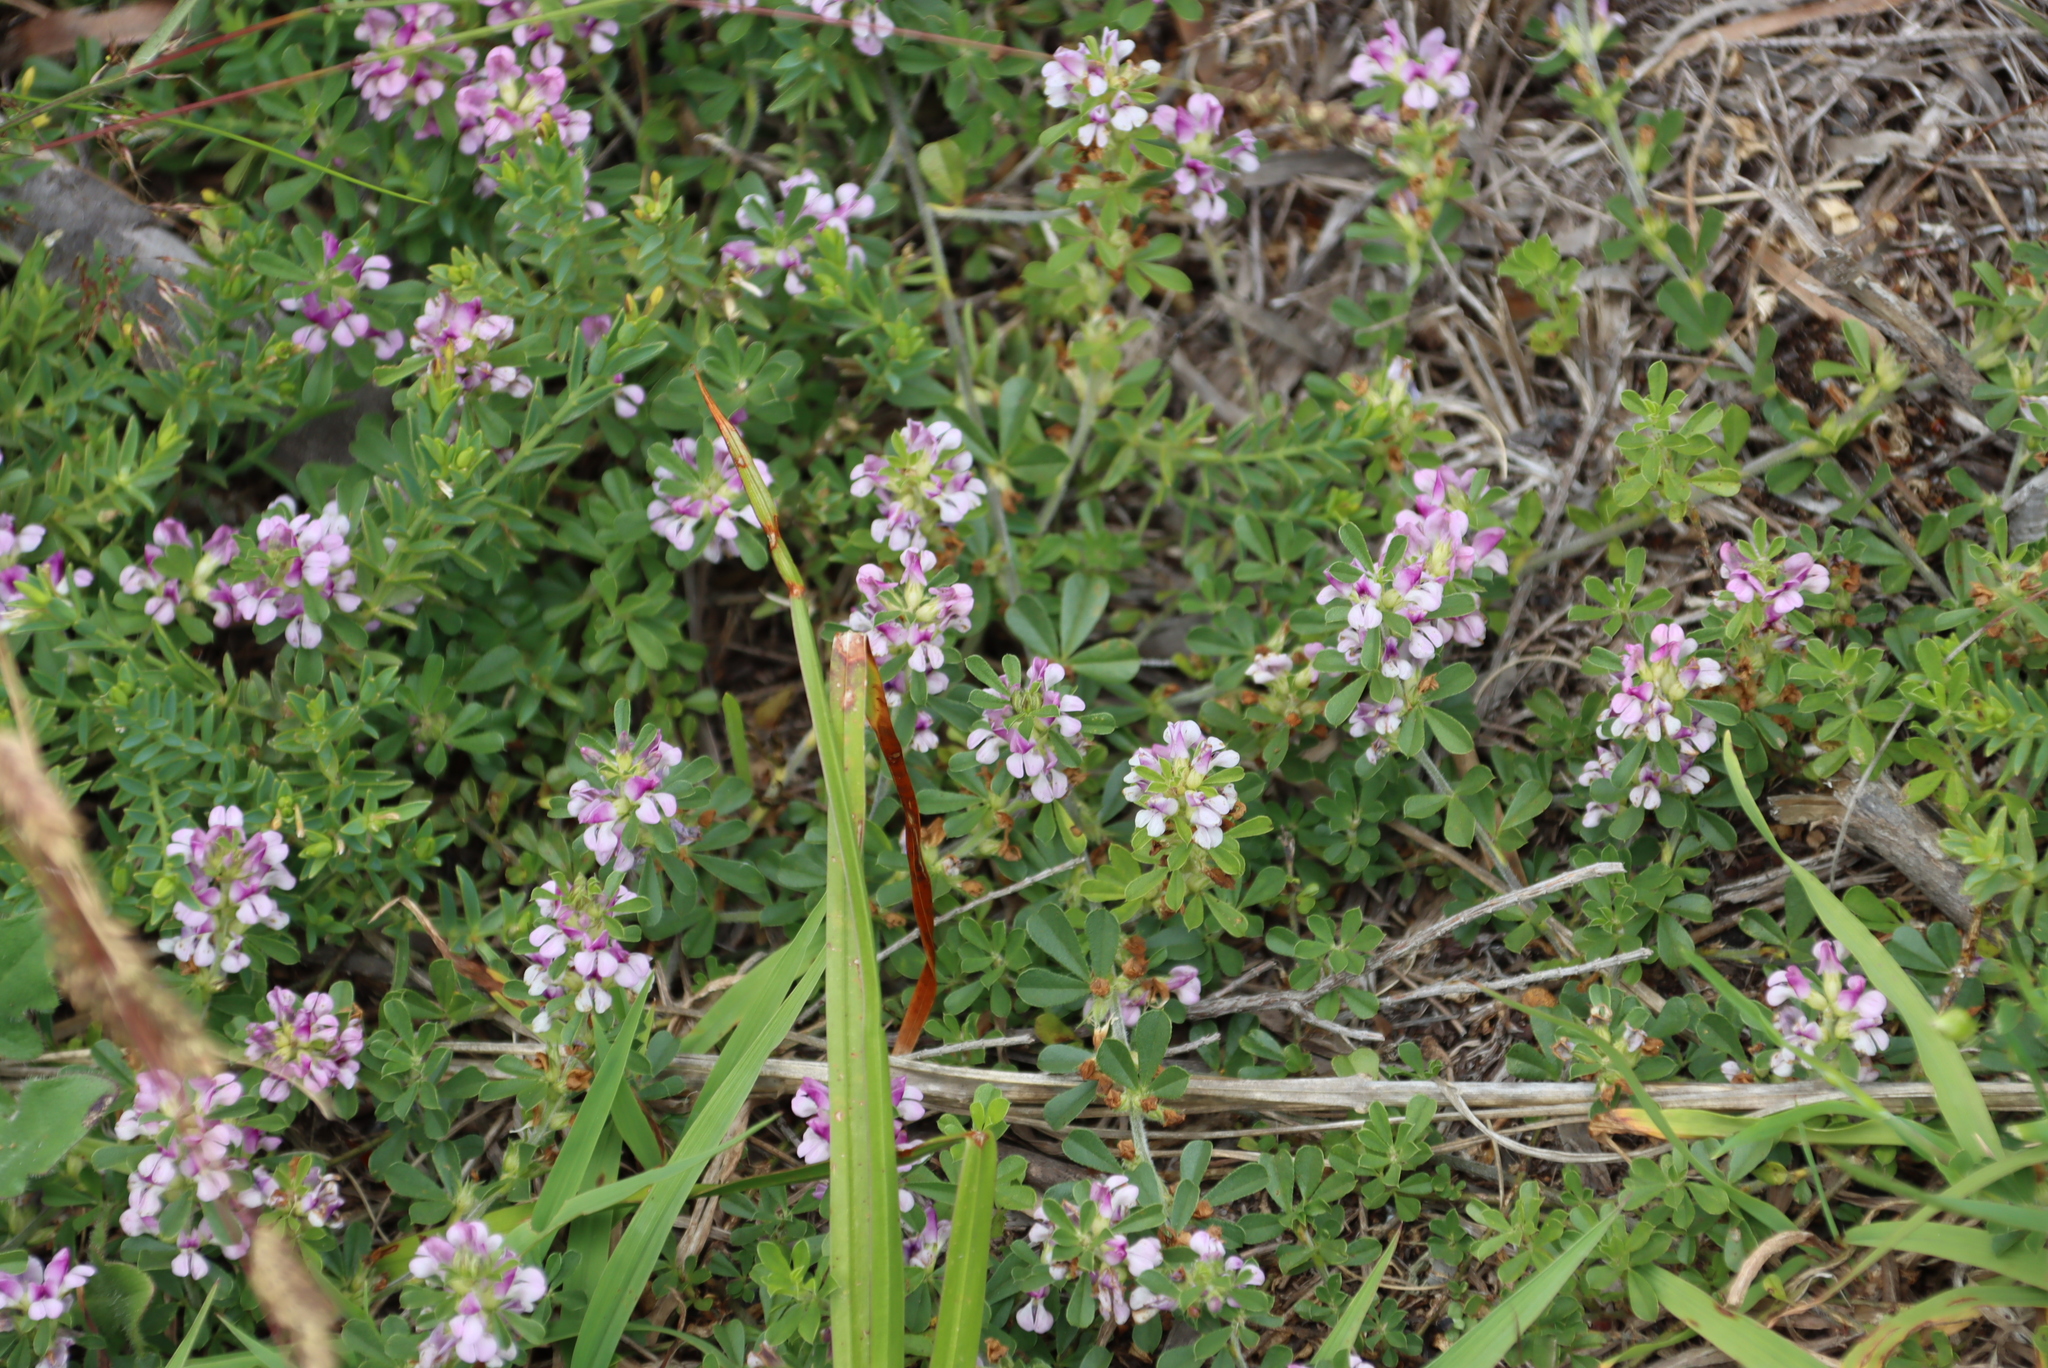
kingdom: Plantae
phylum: Tracheophyta
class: Magnoliopsida
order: Fabales
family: Fabaceae
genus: Psoralea
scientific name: Psoralea
